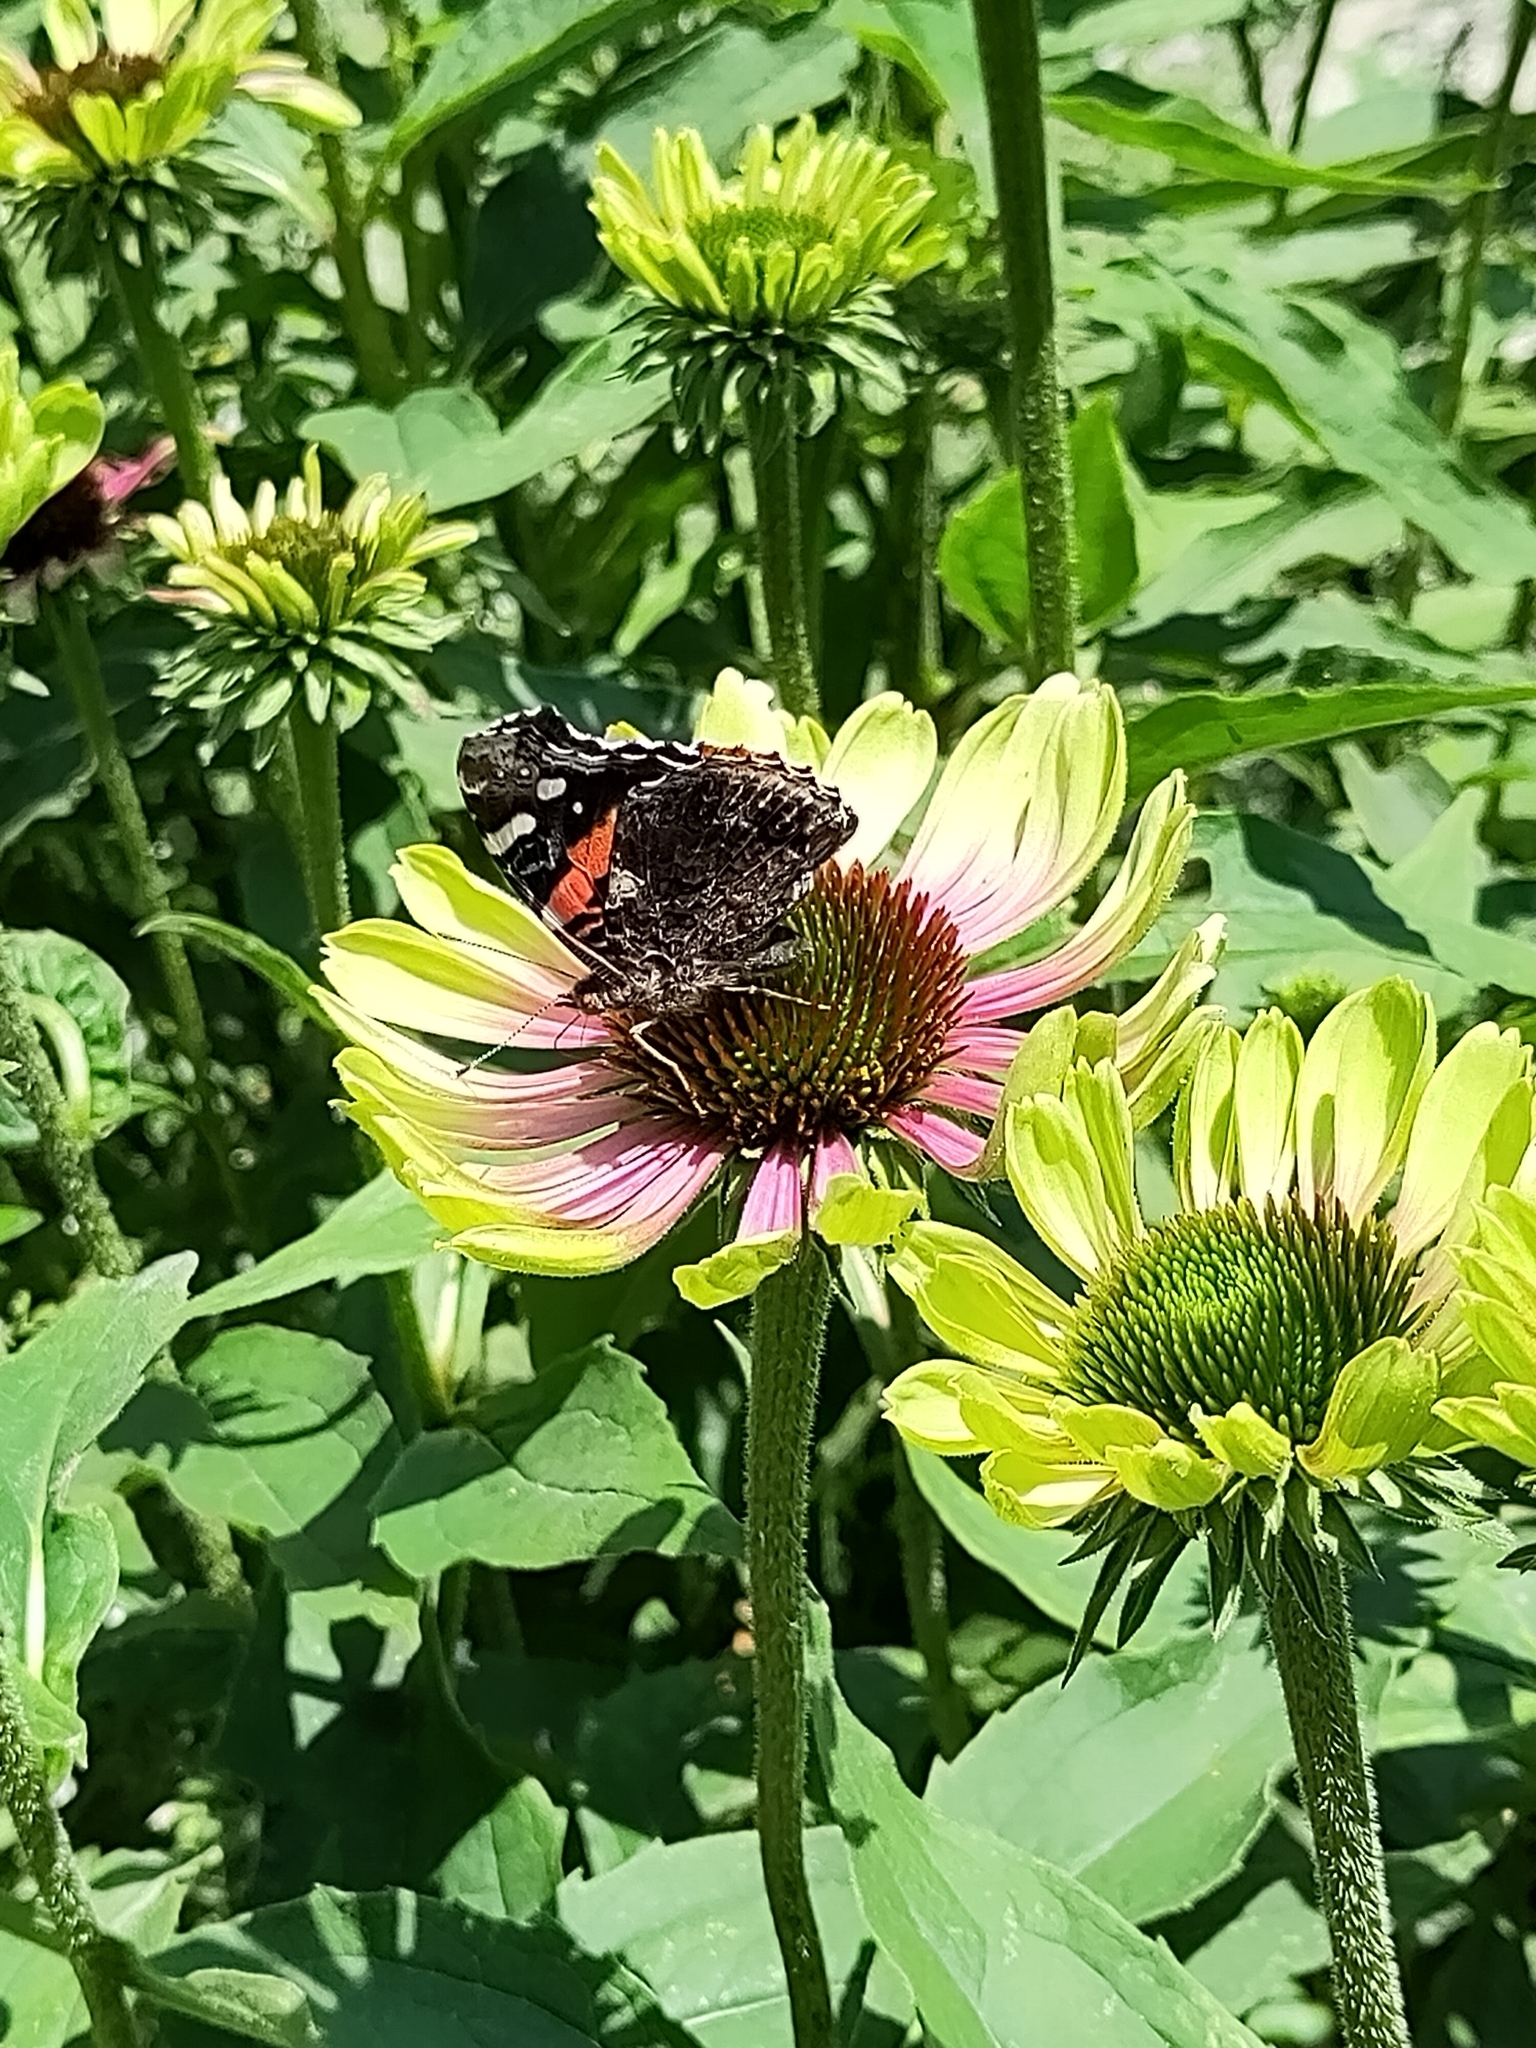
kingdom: Animalia
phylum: Arthropoda
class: Insecta
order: Lepidoptera
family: Nymphalidae
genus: Vanessa
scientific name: Vanessa atalanta
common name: Red admiral
